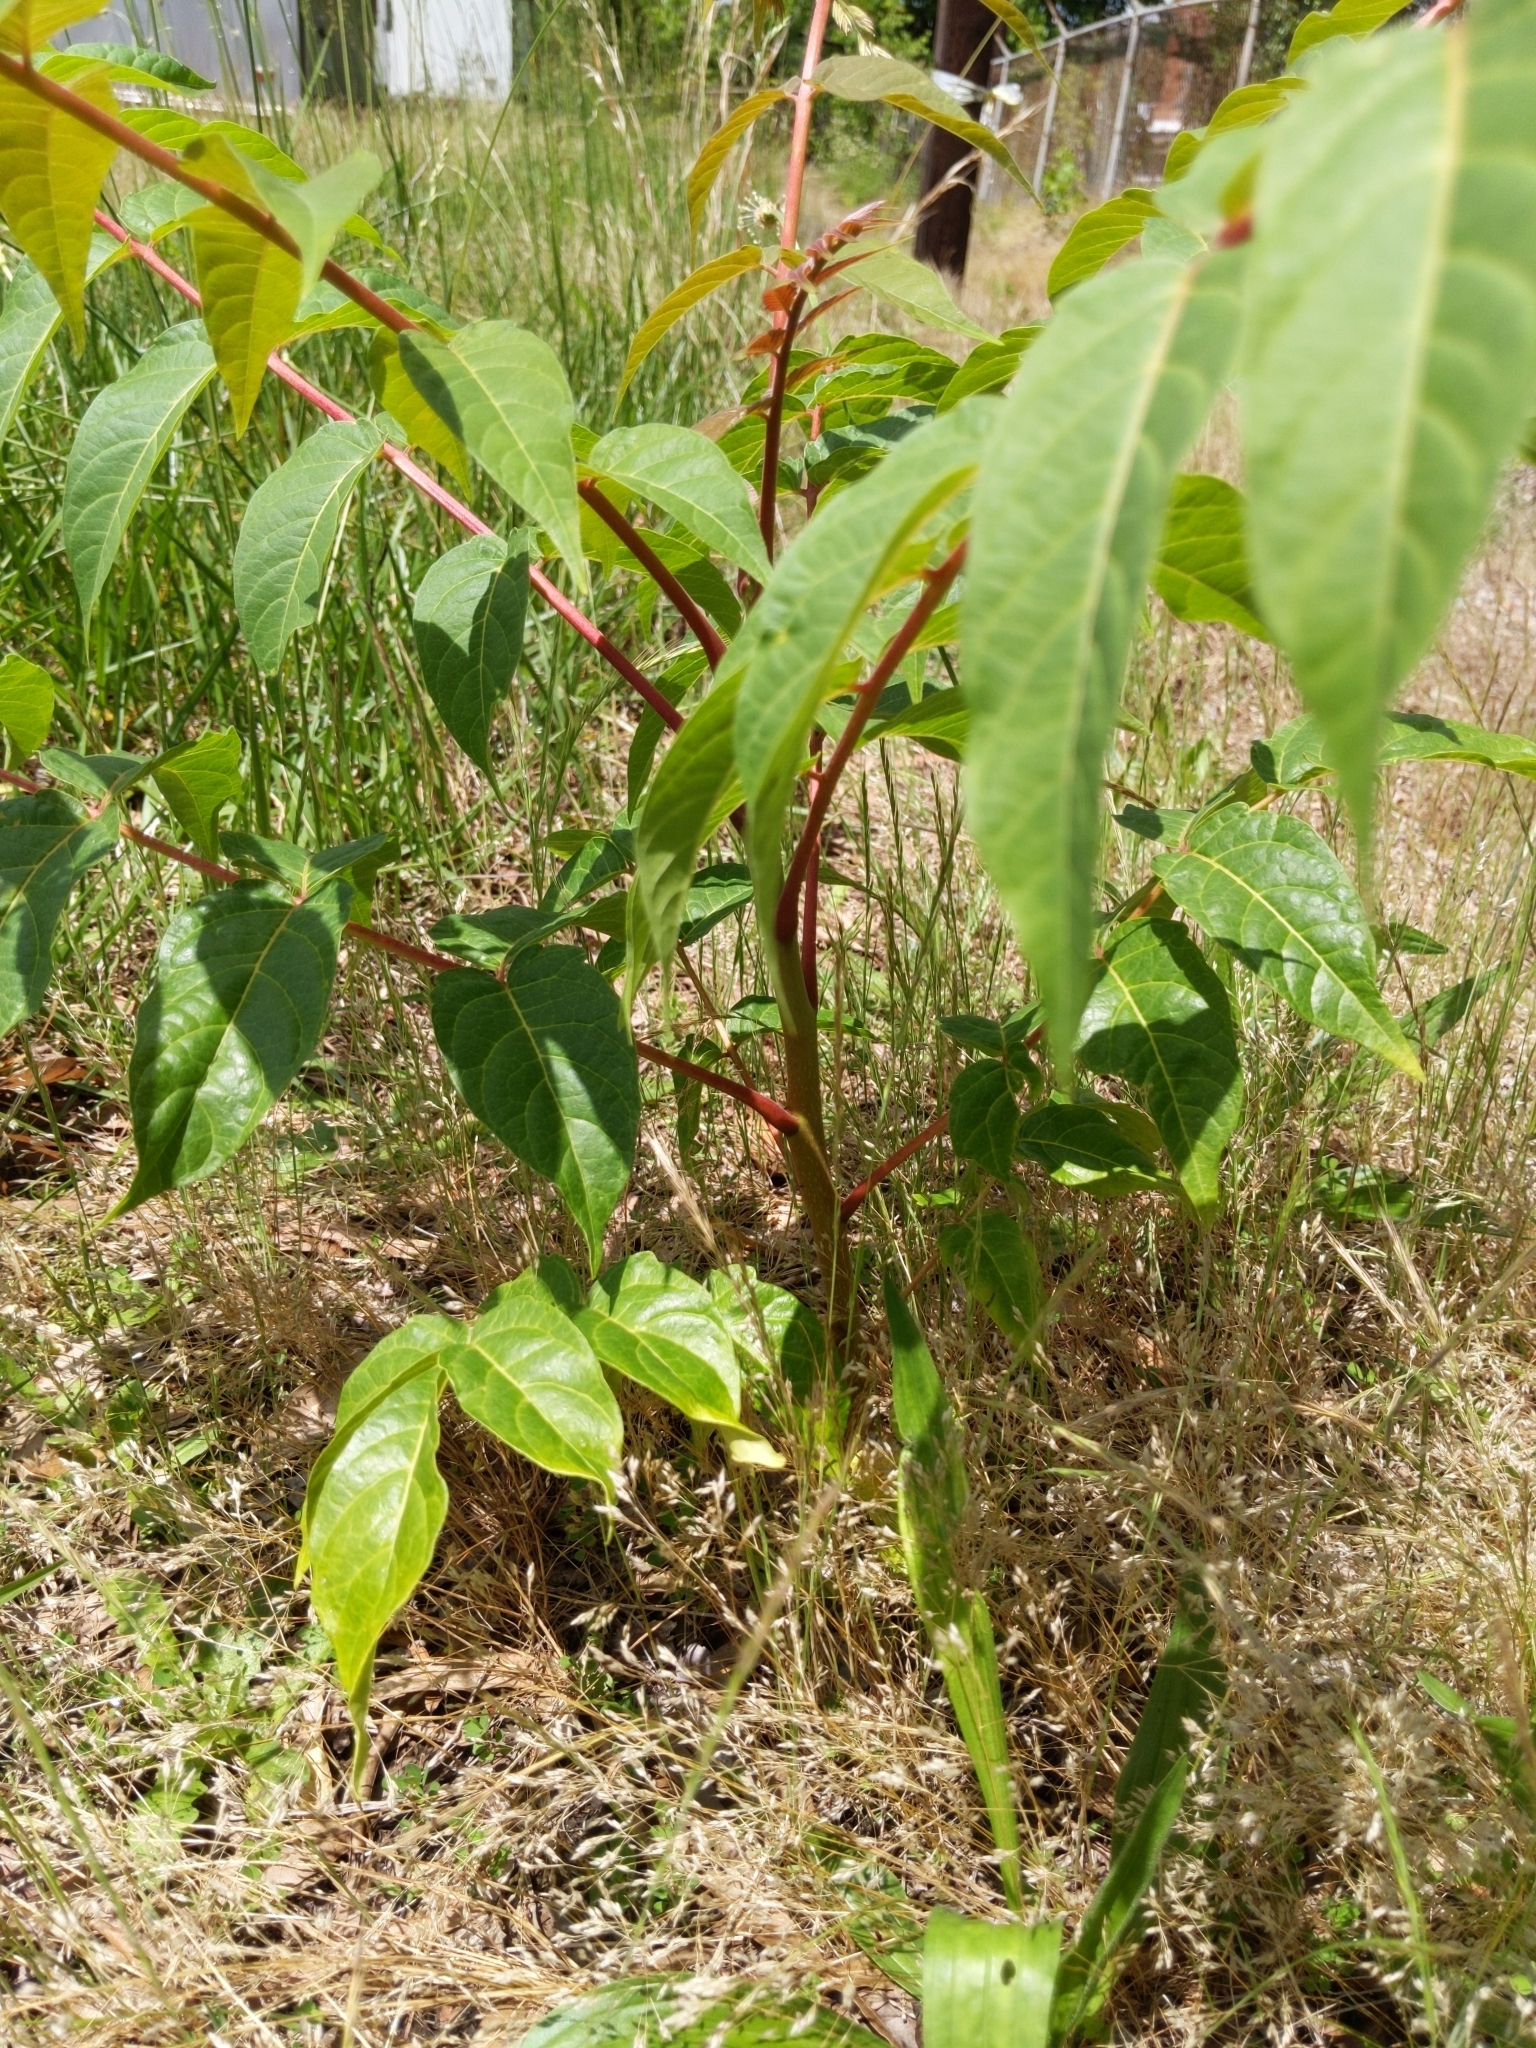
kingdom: Plantae
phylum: Tracheophyta
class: Magnoliopsida
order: Sapindales
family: Simaroubaceae
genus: Ailanthus
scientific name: Ailanthus altissima
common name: Tree-of-heaven
